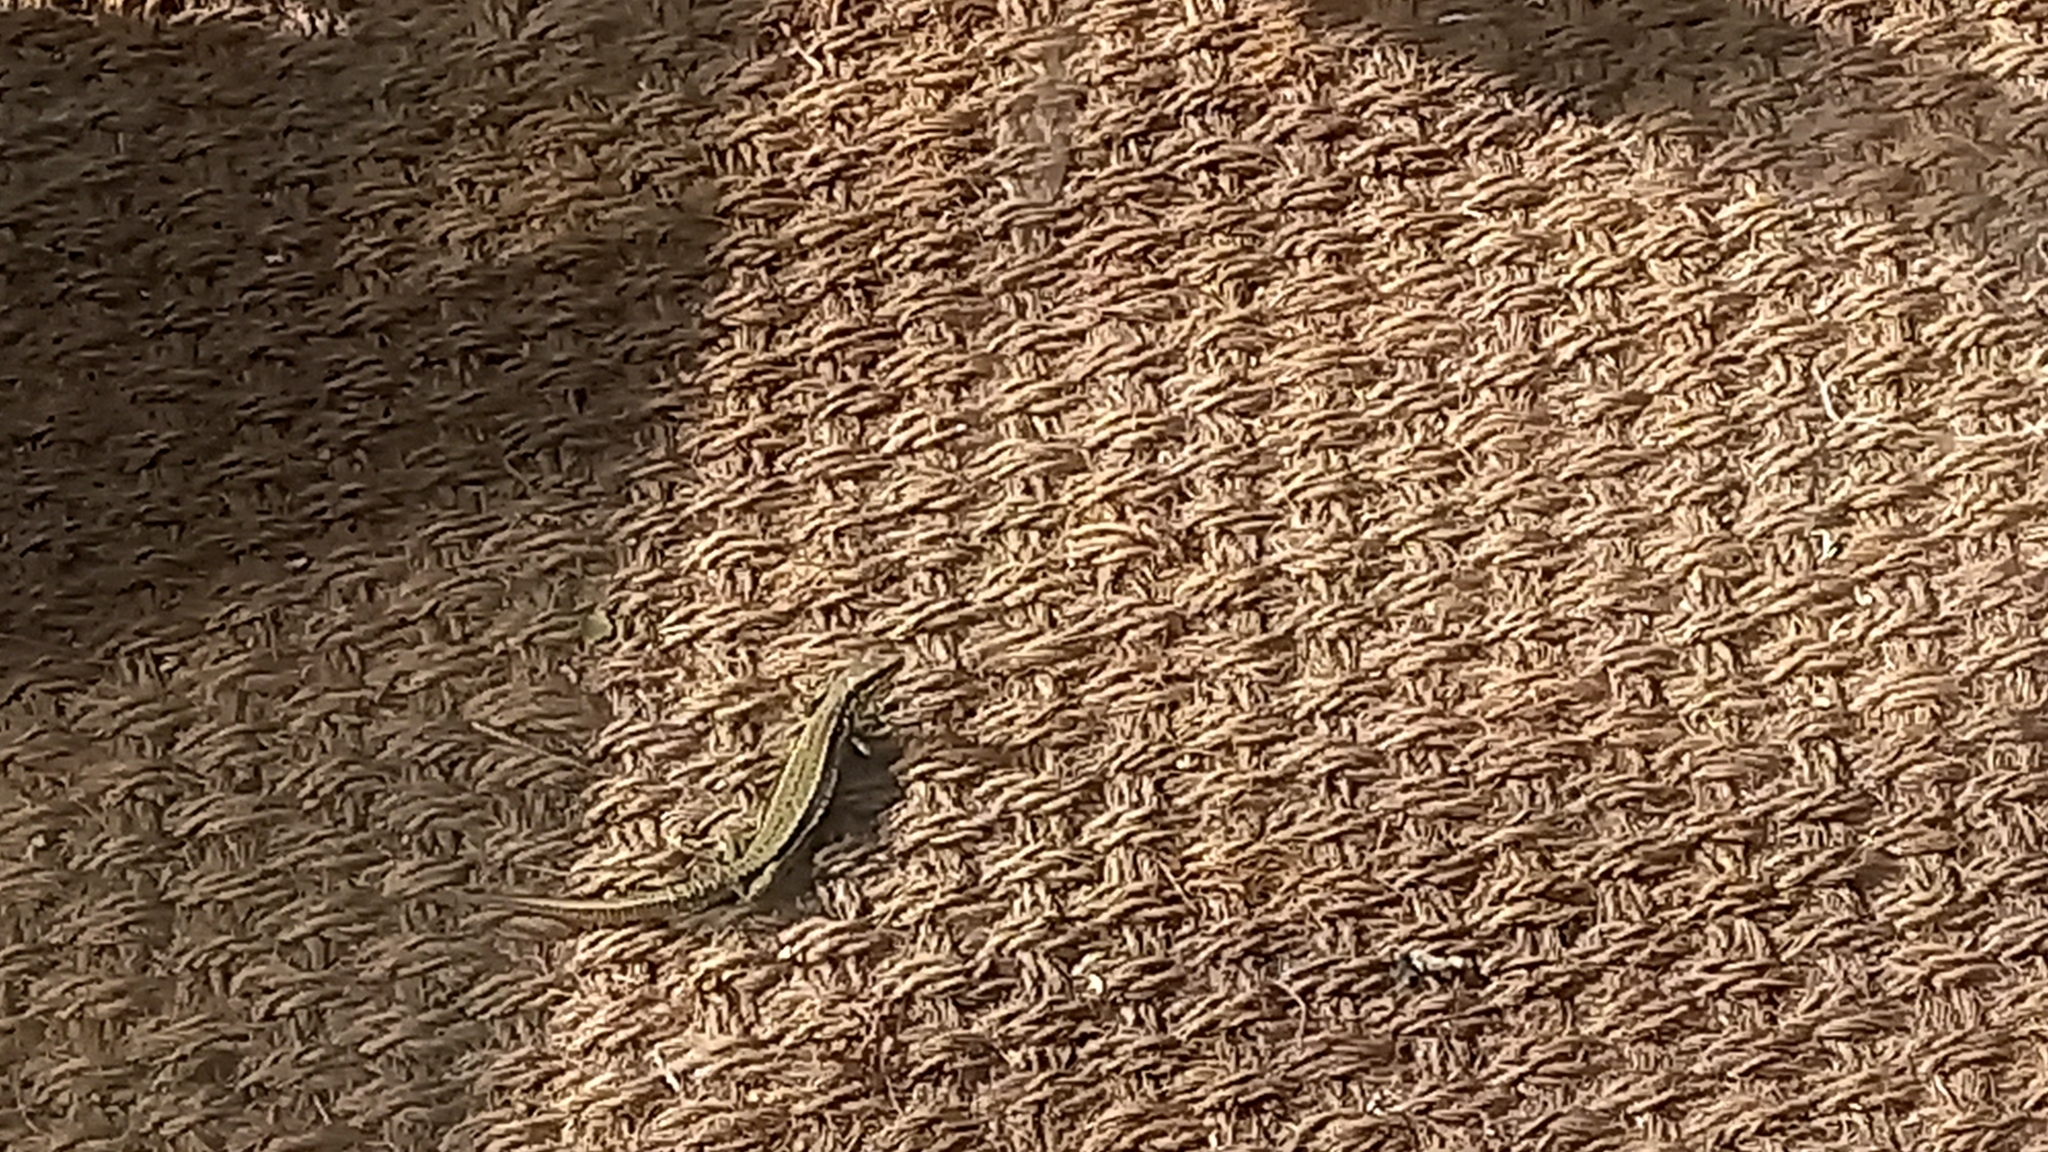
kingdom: Animalia
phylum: Chordata
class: Squamata
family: Lacertidae
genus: Podarcis
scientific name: Podarcis muralis
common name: Common wall lizard
